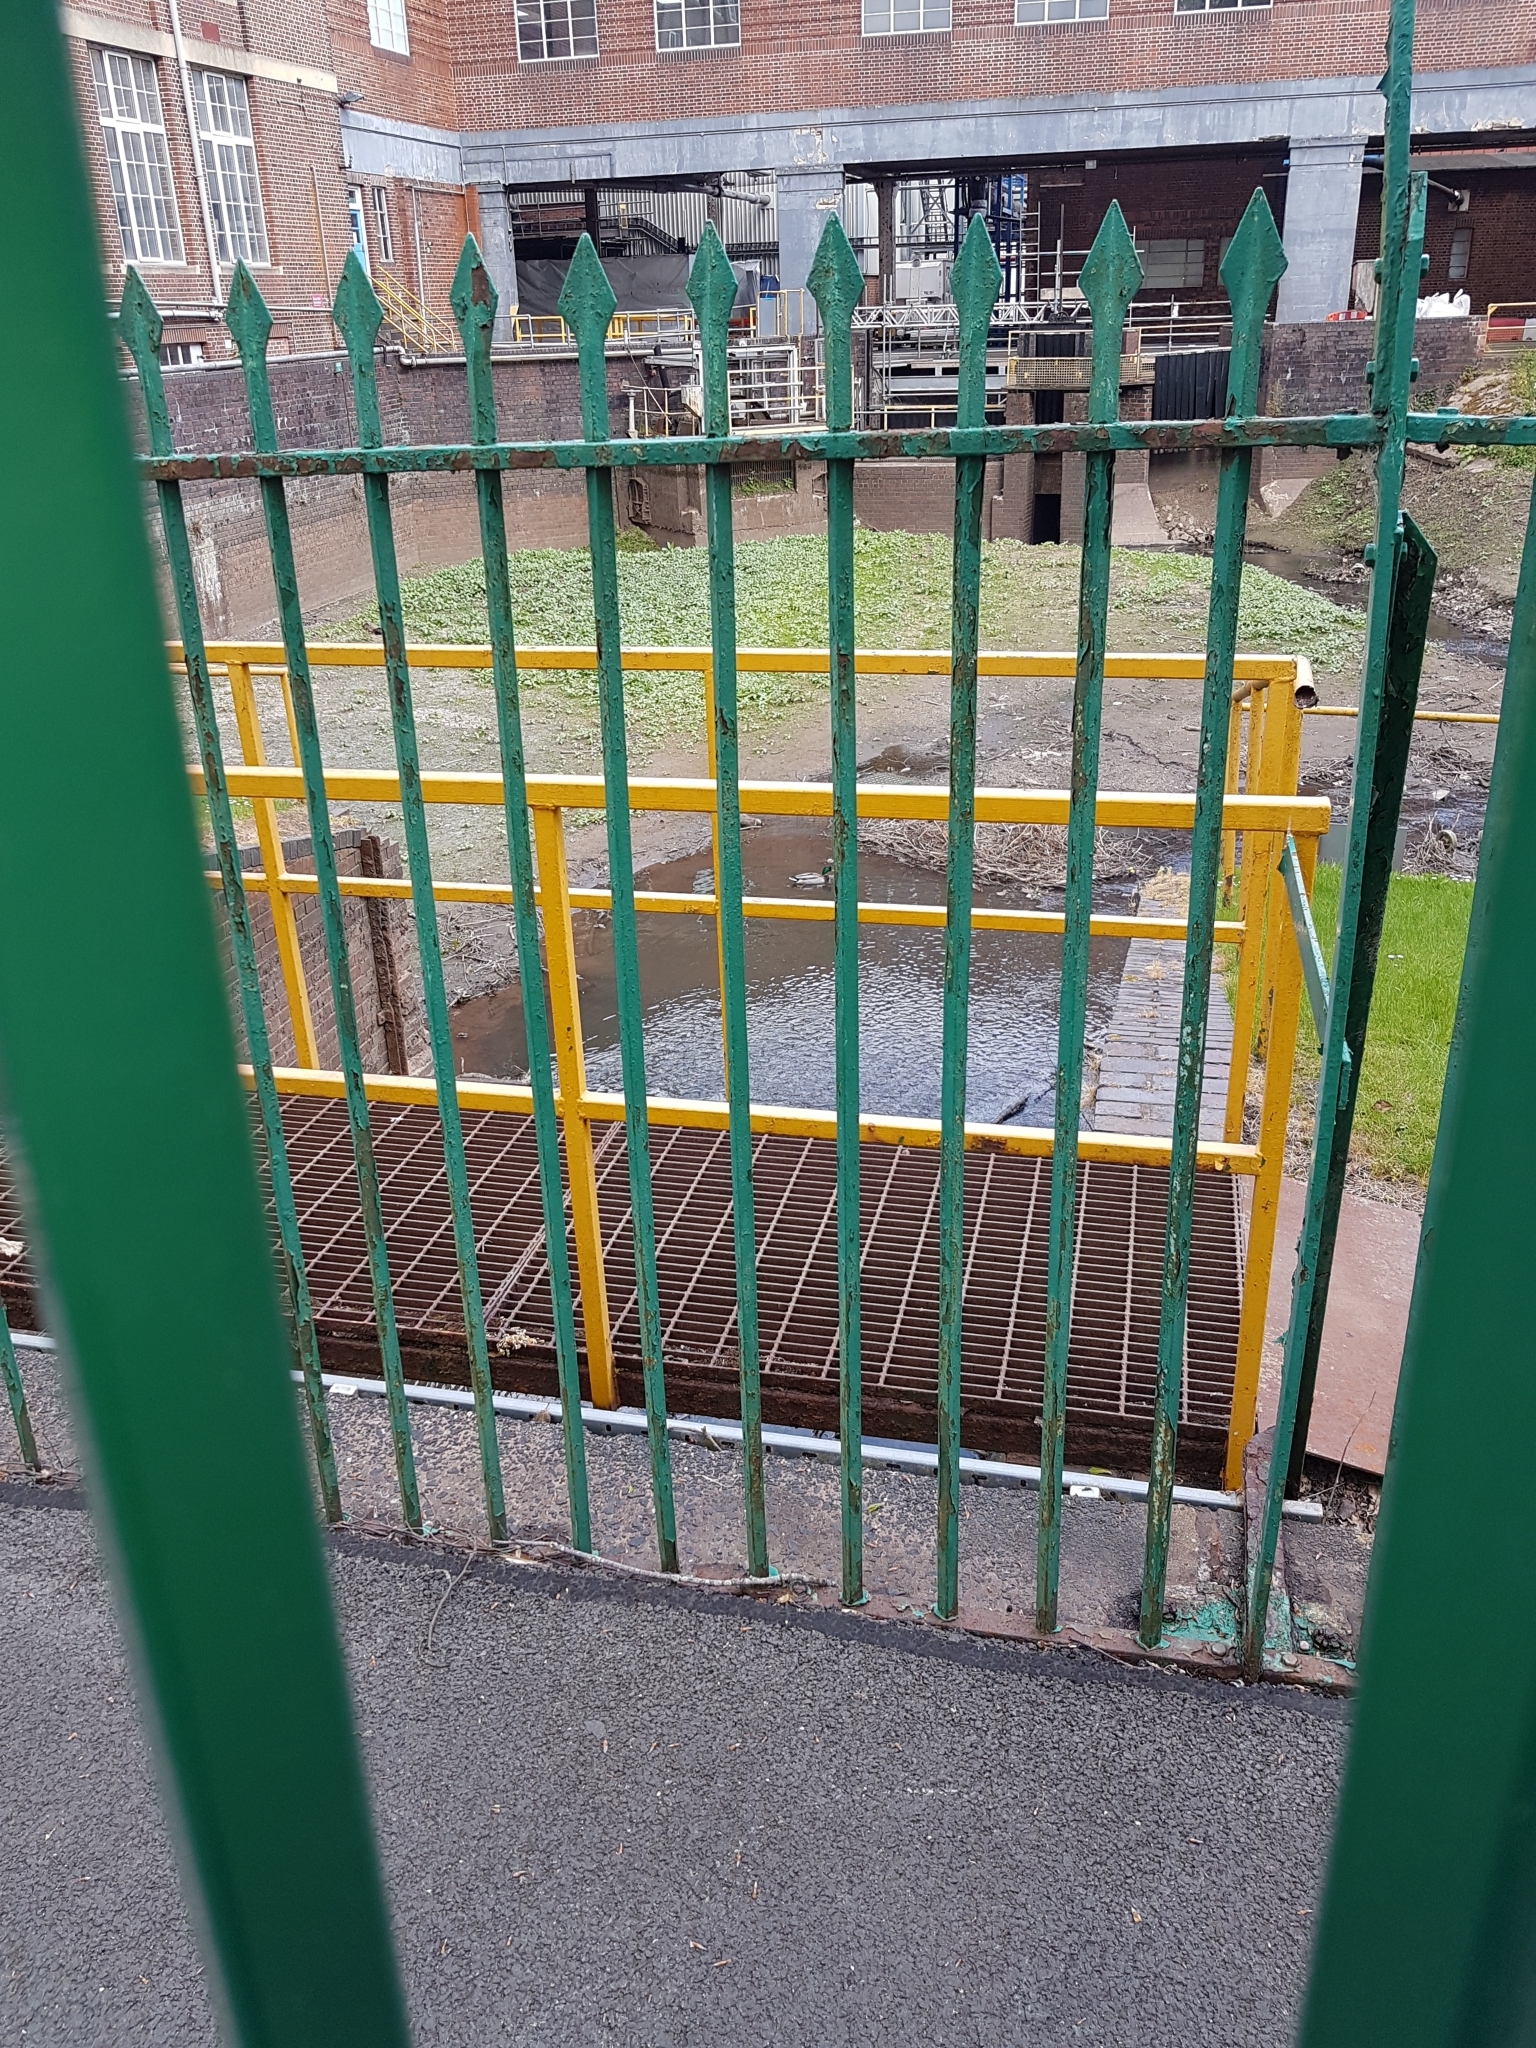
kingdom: Animalia
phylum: Chordata
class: Aves
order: Anseriformes
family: Anatidae
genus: Anas
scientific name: Anas platyrhynchos
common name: Mallard
